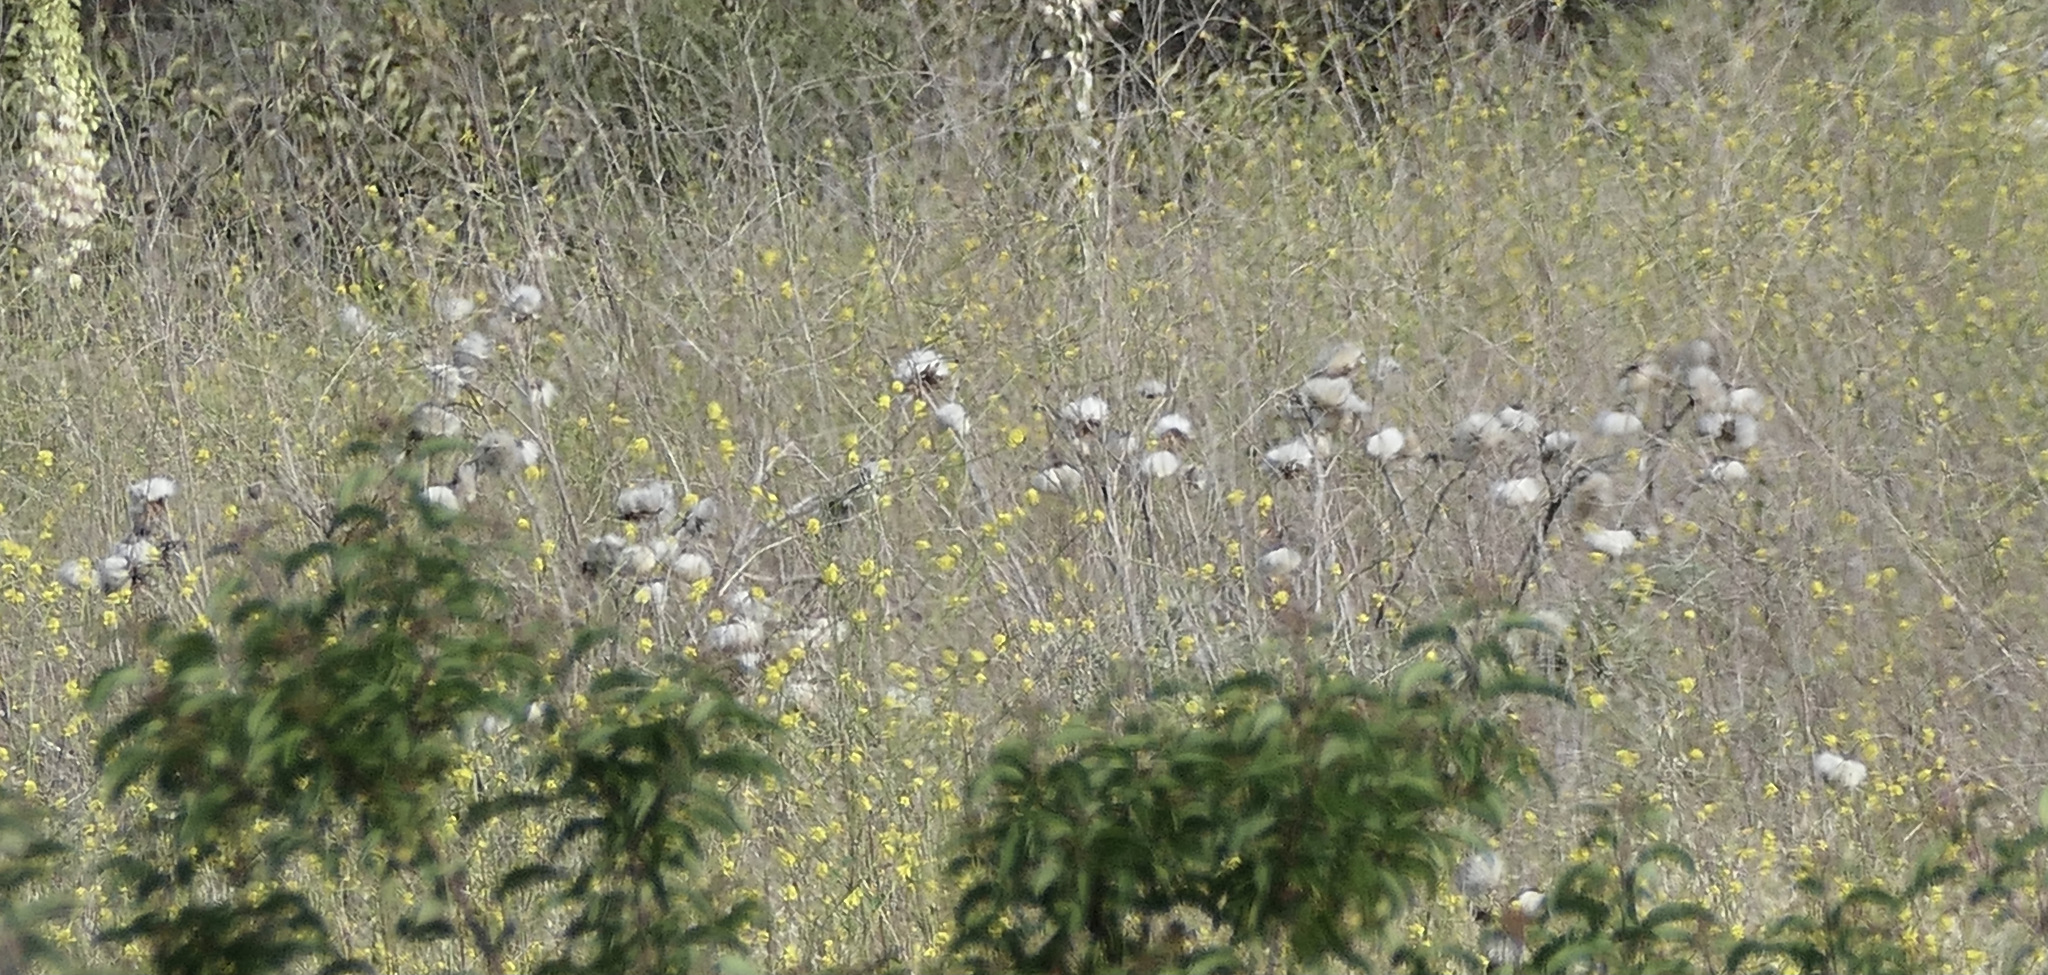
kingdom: Plantae
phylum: Tracheophyta
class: Magnoliopsida
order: Asterales
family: Asteraceae
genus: Cynara
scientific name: Cynara cardunculus
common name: Globe artichoke
